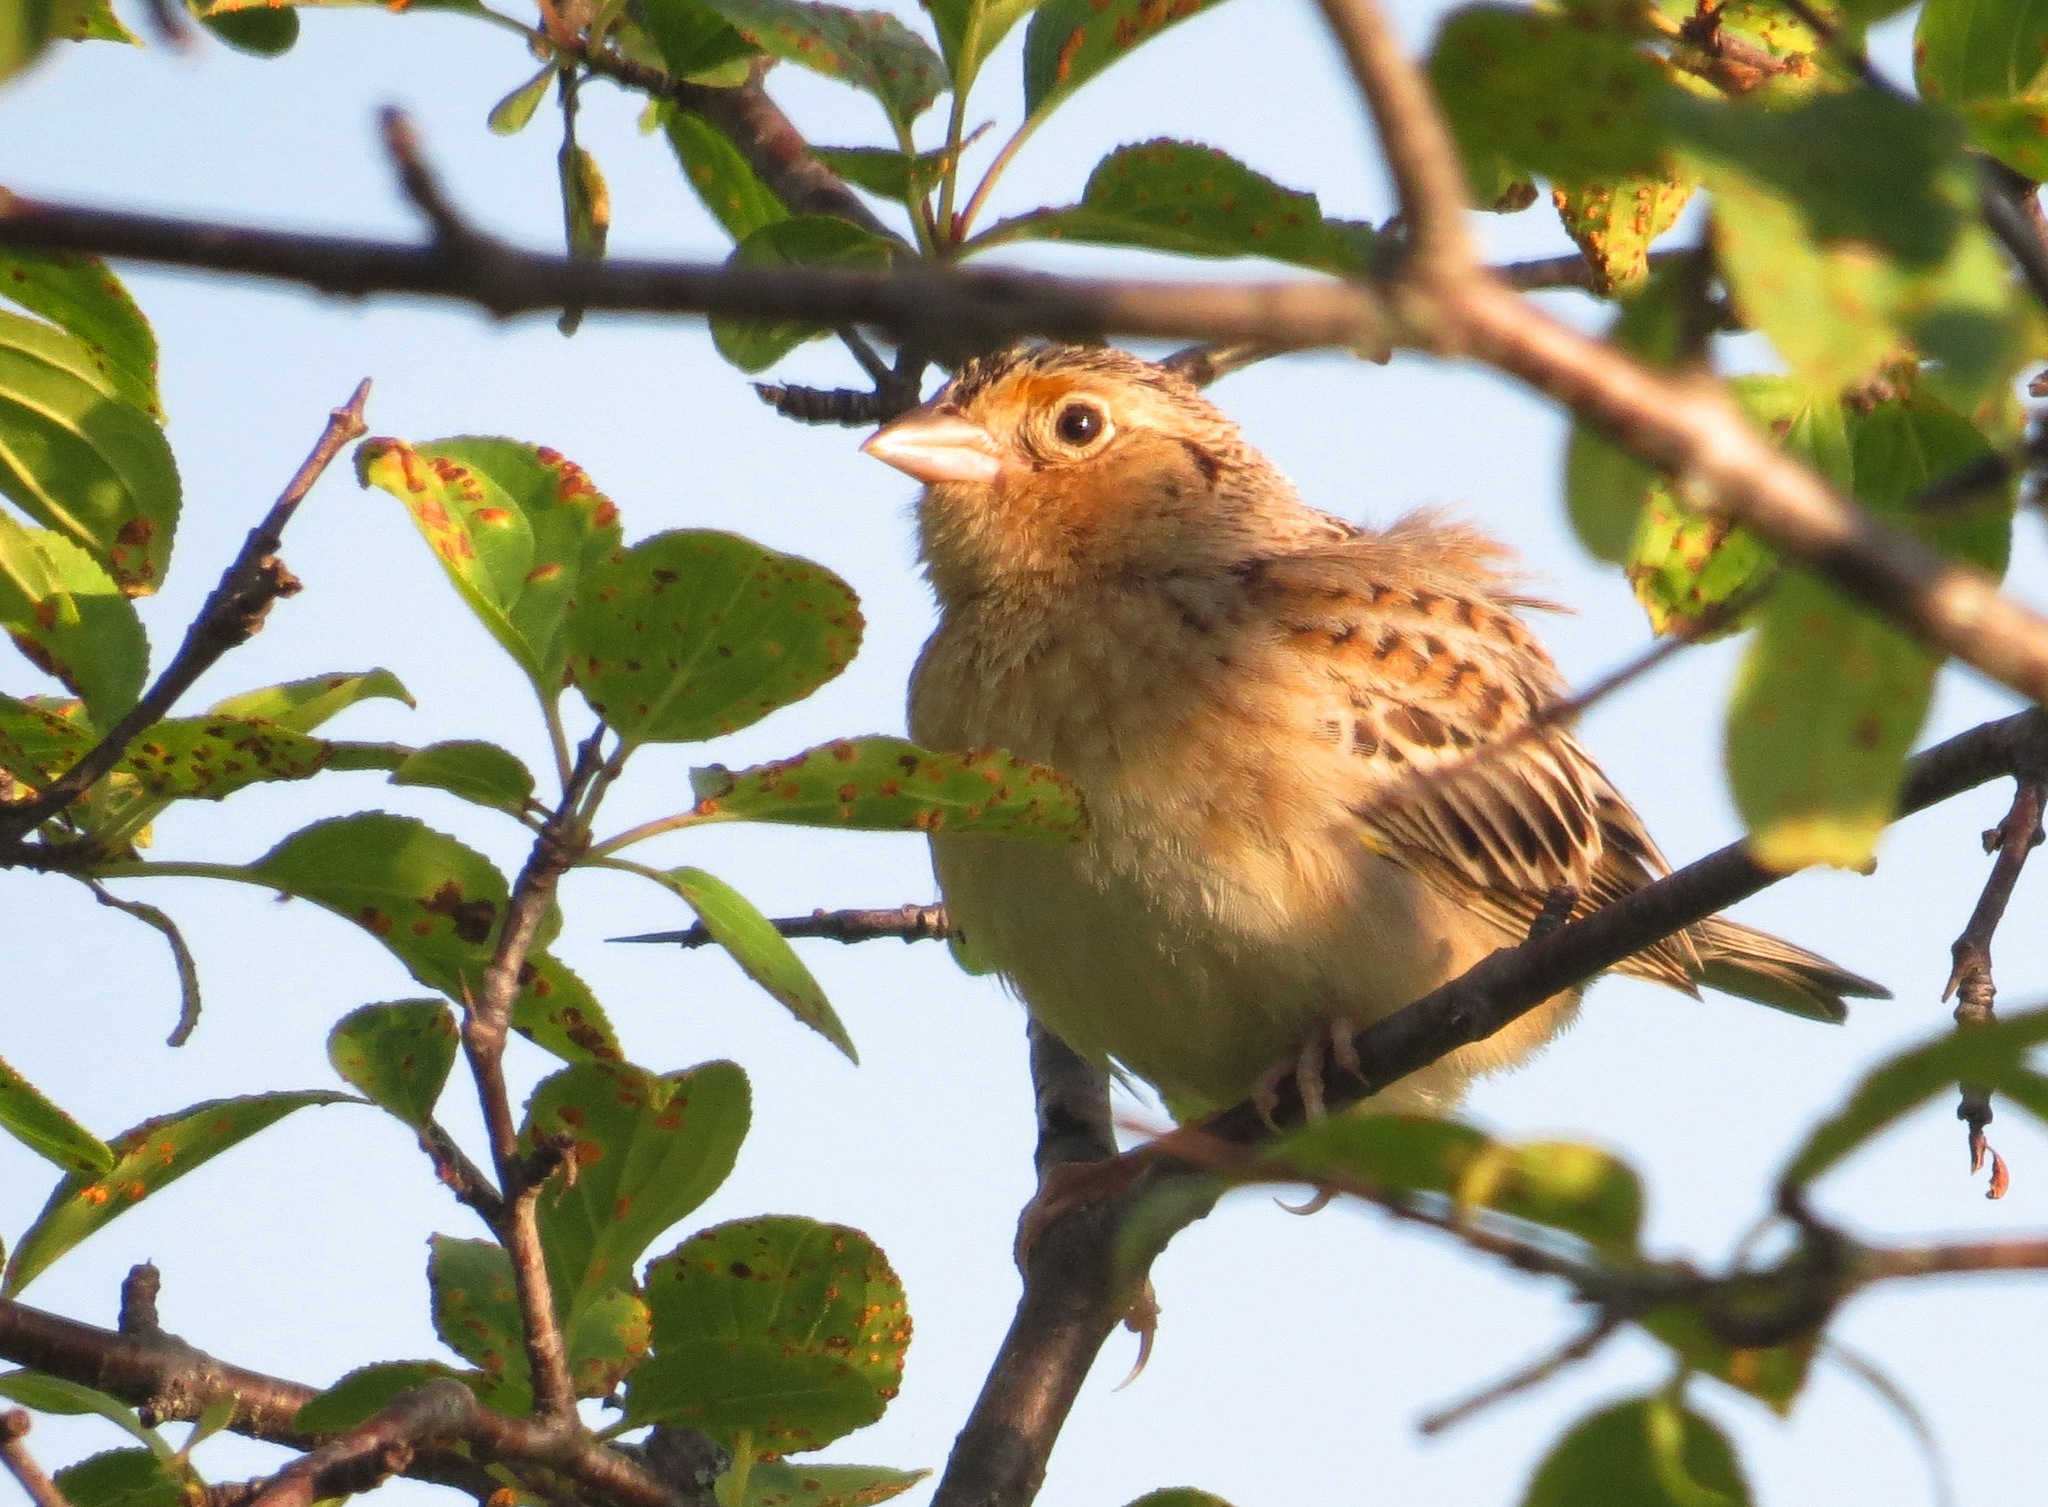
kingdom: Animalia
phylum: Chordata
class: Aves
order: Passeriformes
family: Passerellidae
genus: Ammodramus
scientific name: Ammodramus savannarum
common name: Grasshopper sparrow
